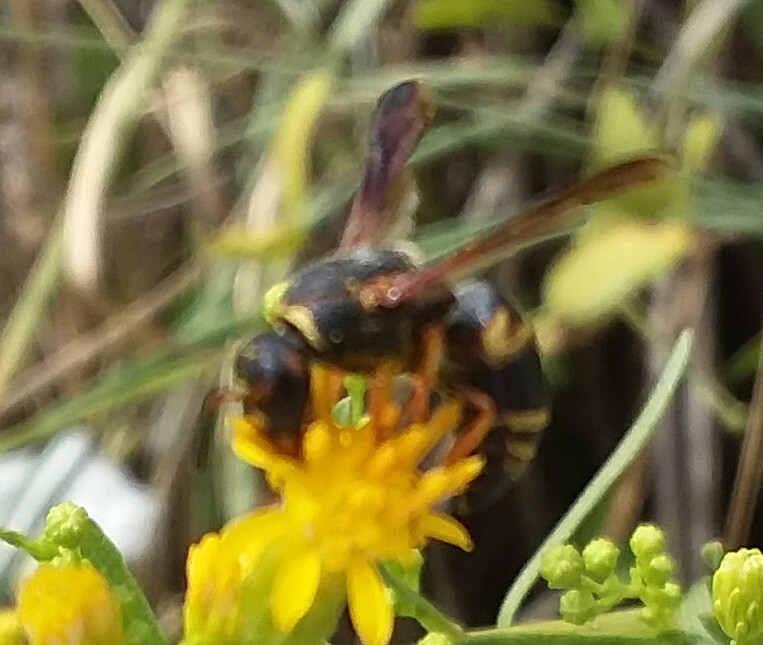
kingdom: Animalia
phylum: Arthropoda
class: Insecta
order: Hymenoptera
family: Eumenidae
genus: Euodynerus
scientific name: Euodynerus hidalgo
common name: Wasp
